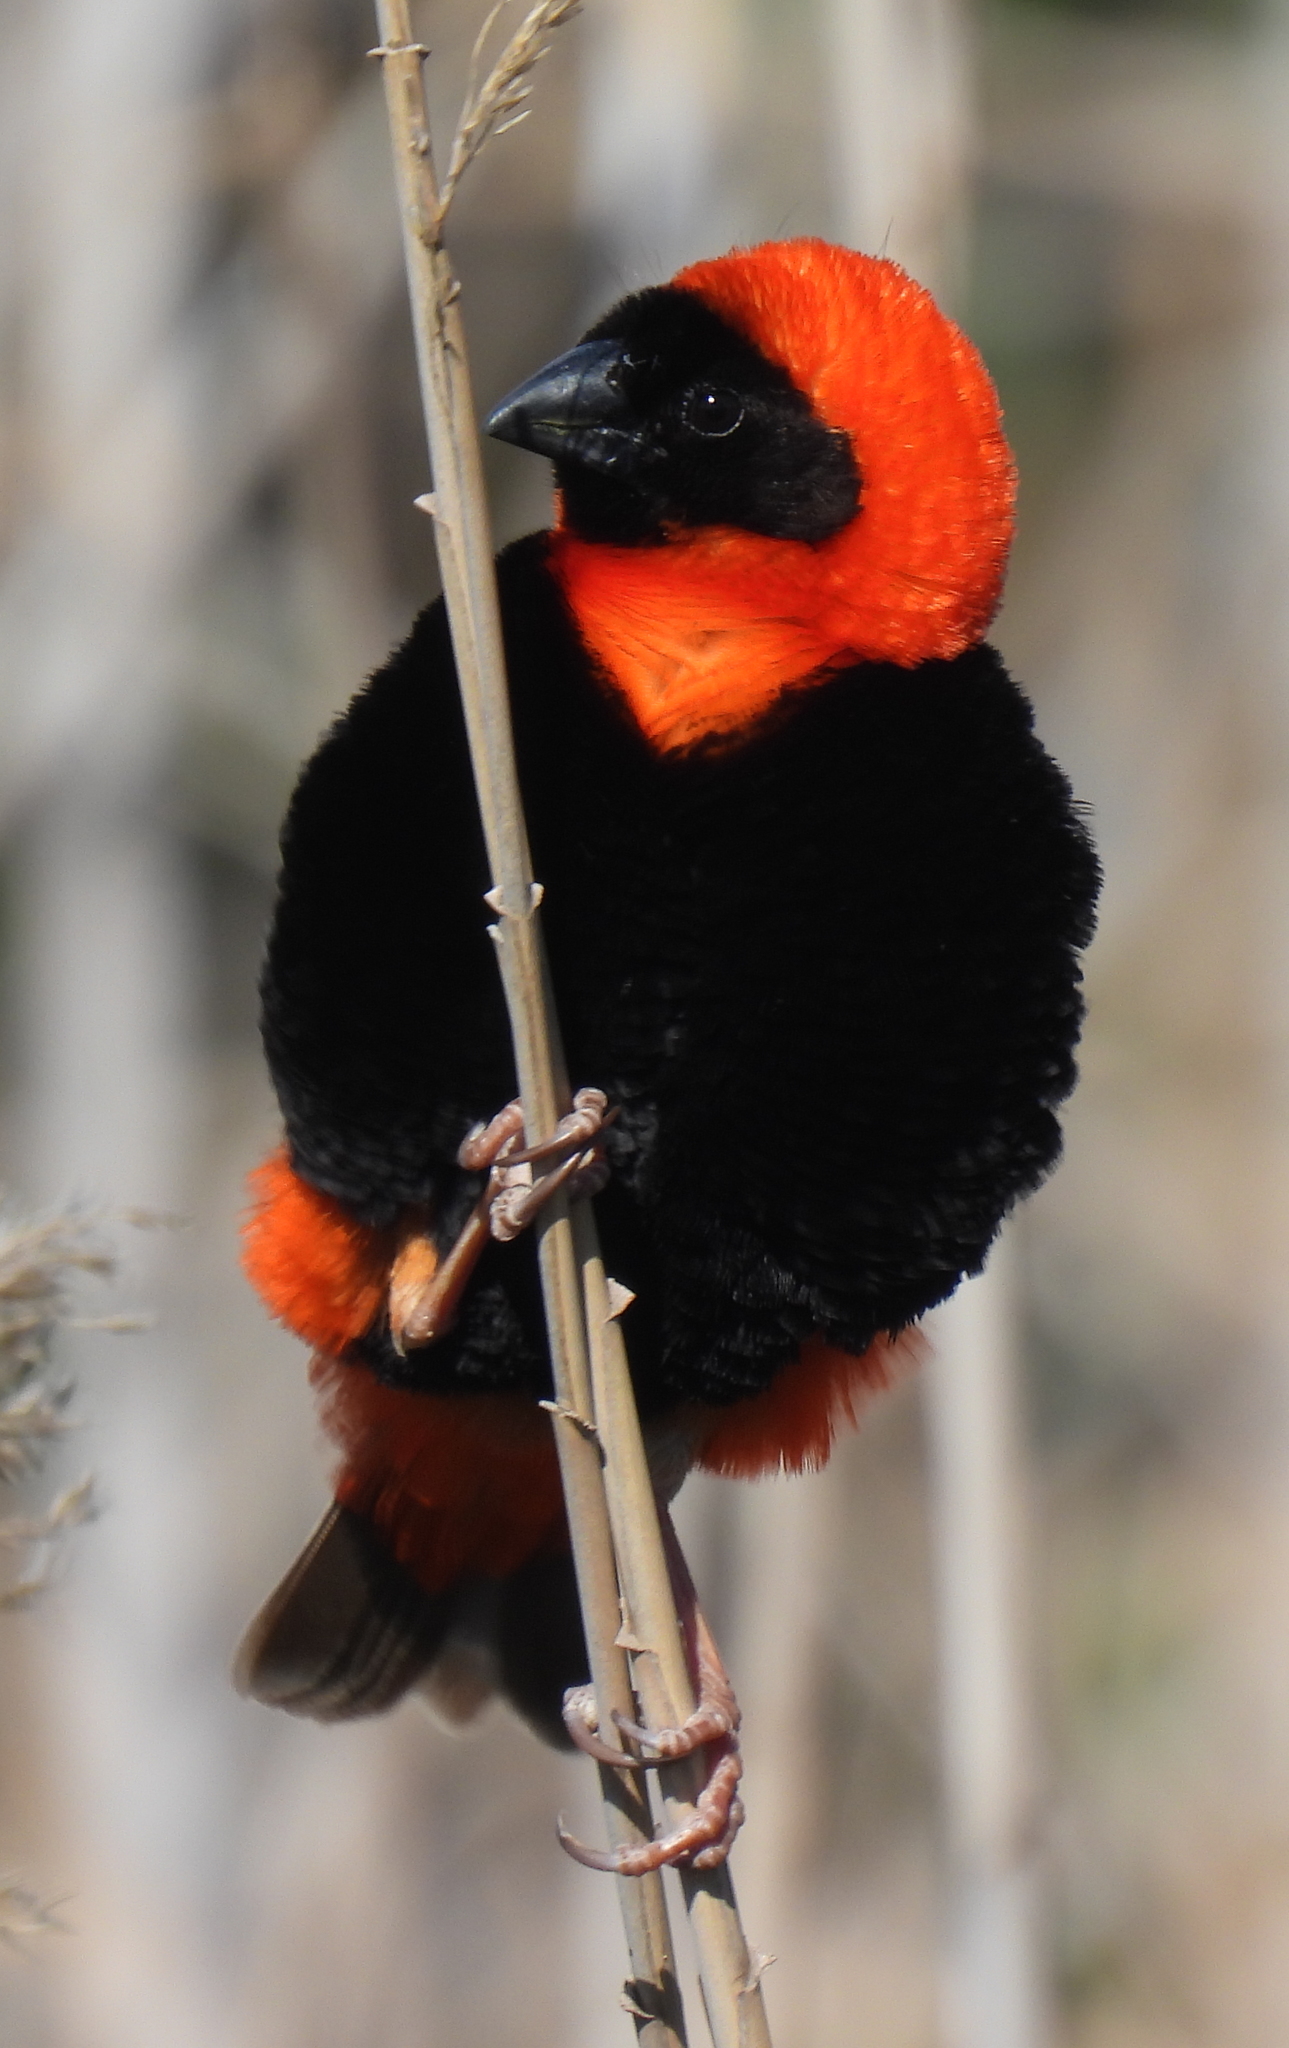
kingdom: Animalia
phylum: Chordata
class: Aves
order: Passeriformes
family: Ploceidae
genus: Euplectes
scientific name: Euplectes orix
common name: Southern red bishop
